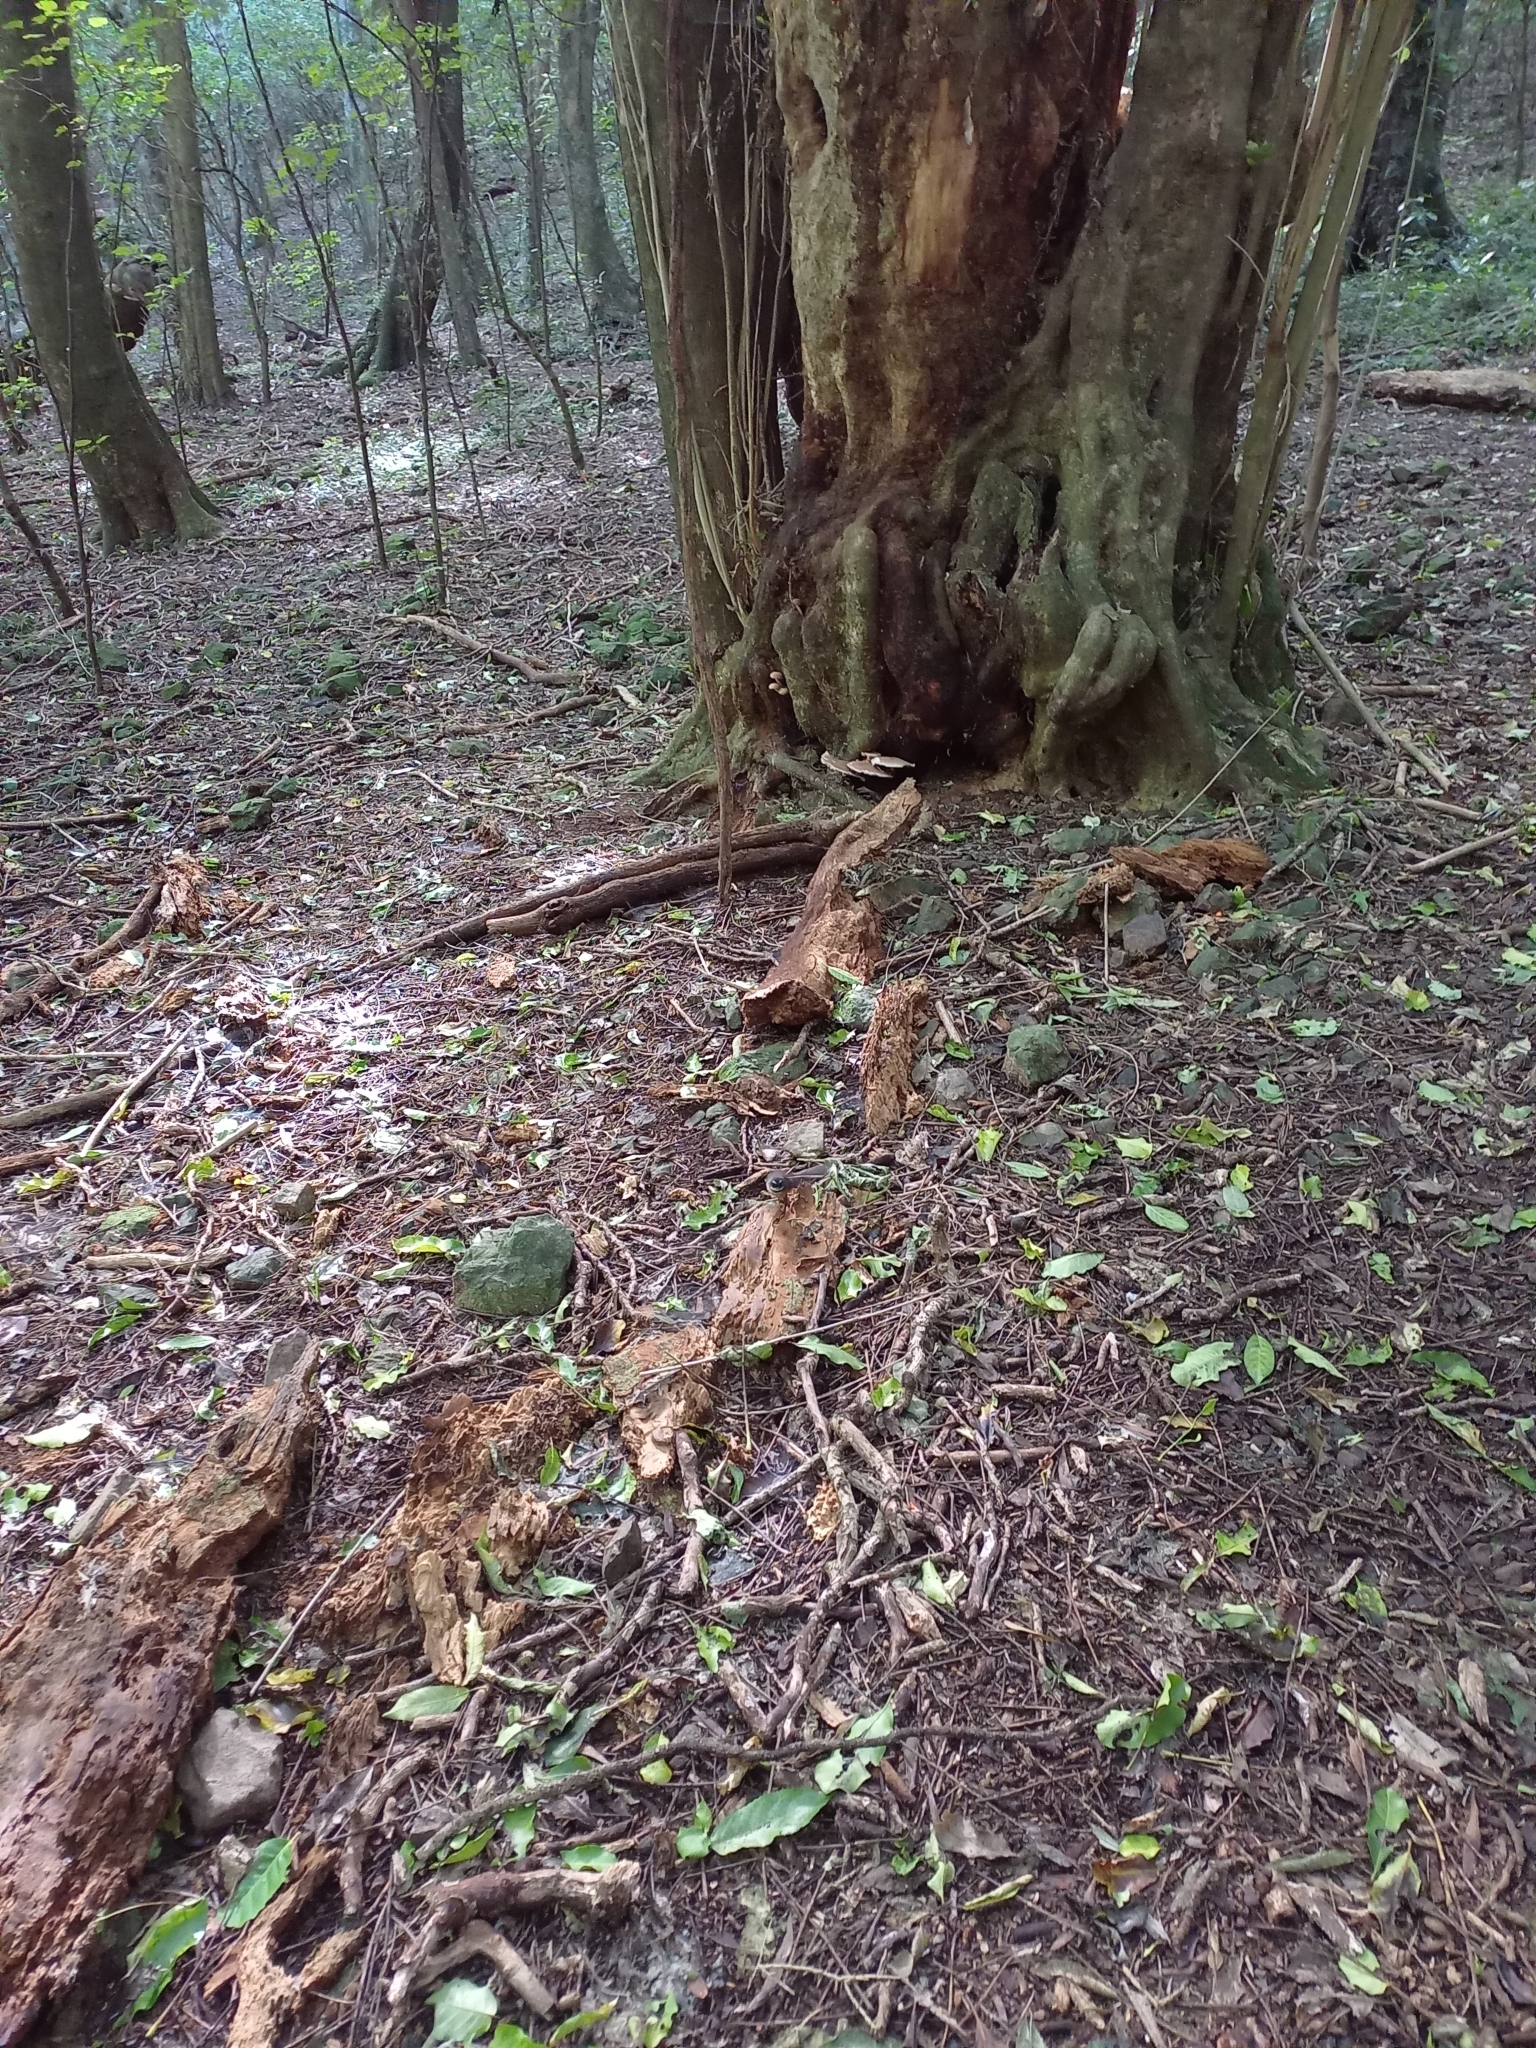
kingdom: Animalia
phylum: Chordata
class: Aves
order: Passeriformes
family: Rhipiduridae
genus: Rhipidura
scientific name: Rhipidura fuliginosa
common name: New zealand fantail
